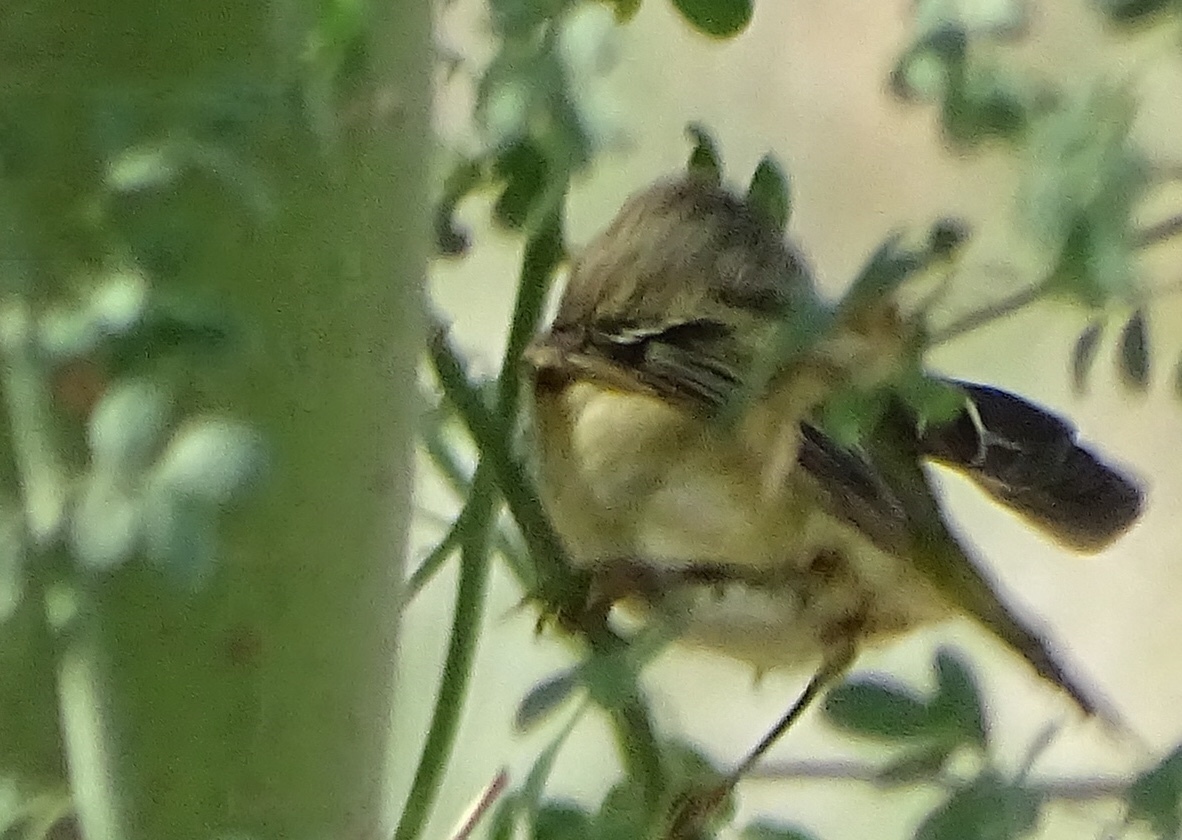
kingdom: Animalia
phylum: Chordata
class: Aves
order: Passeriformes
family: Regulidae
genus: Regulus
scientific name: Regulus calendula
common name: Ruby-crowned kinglet
